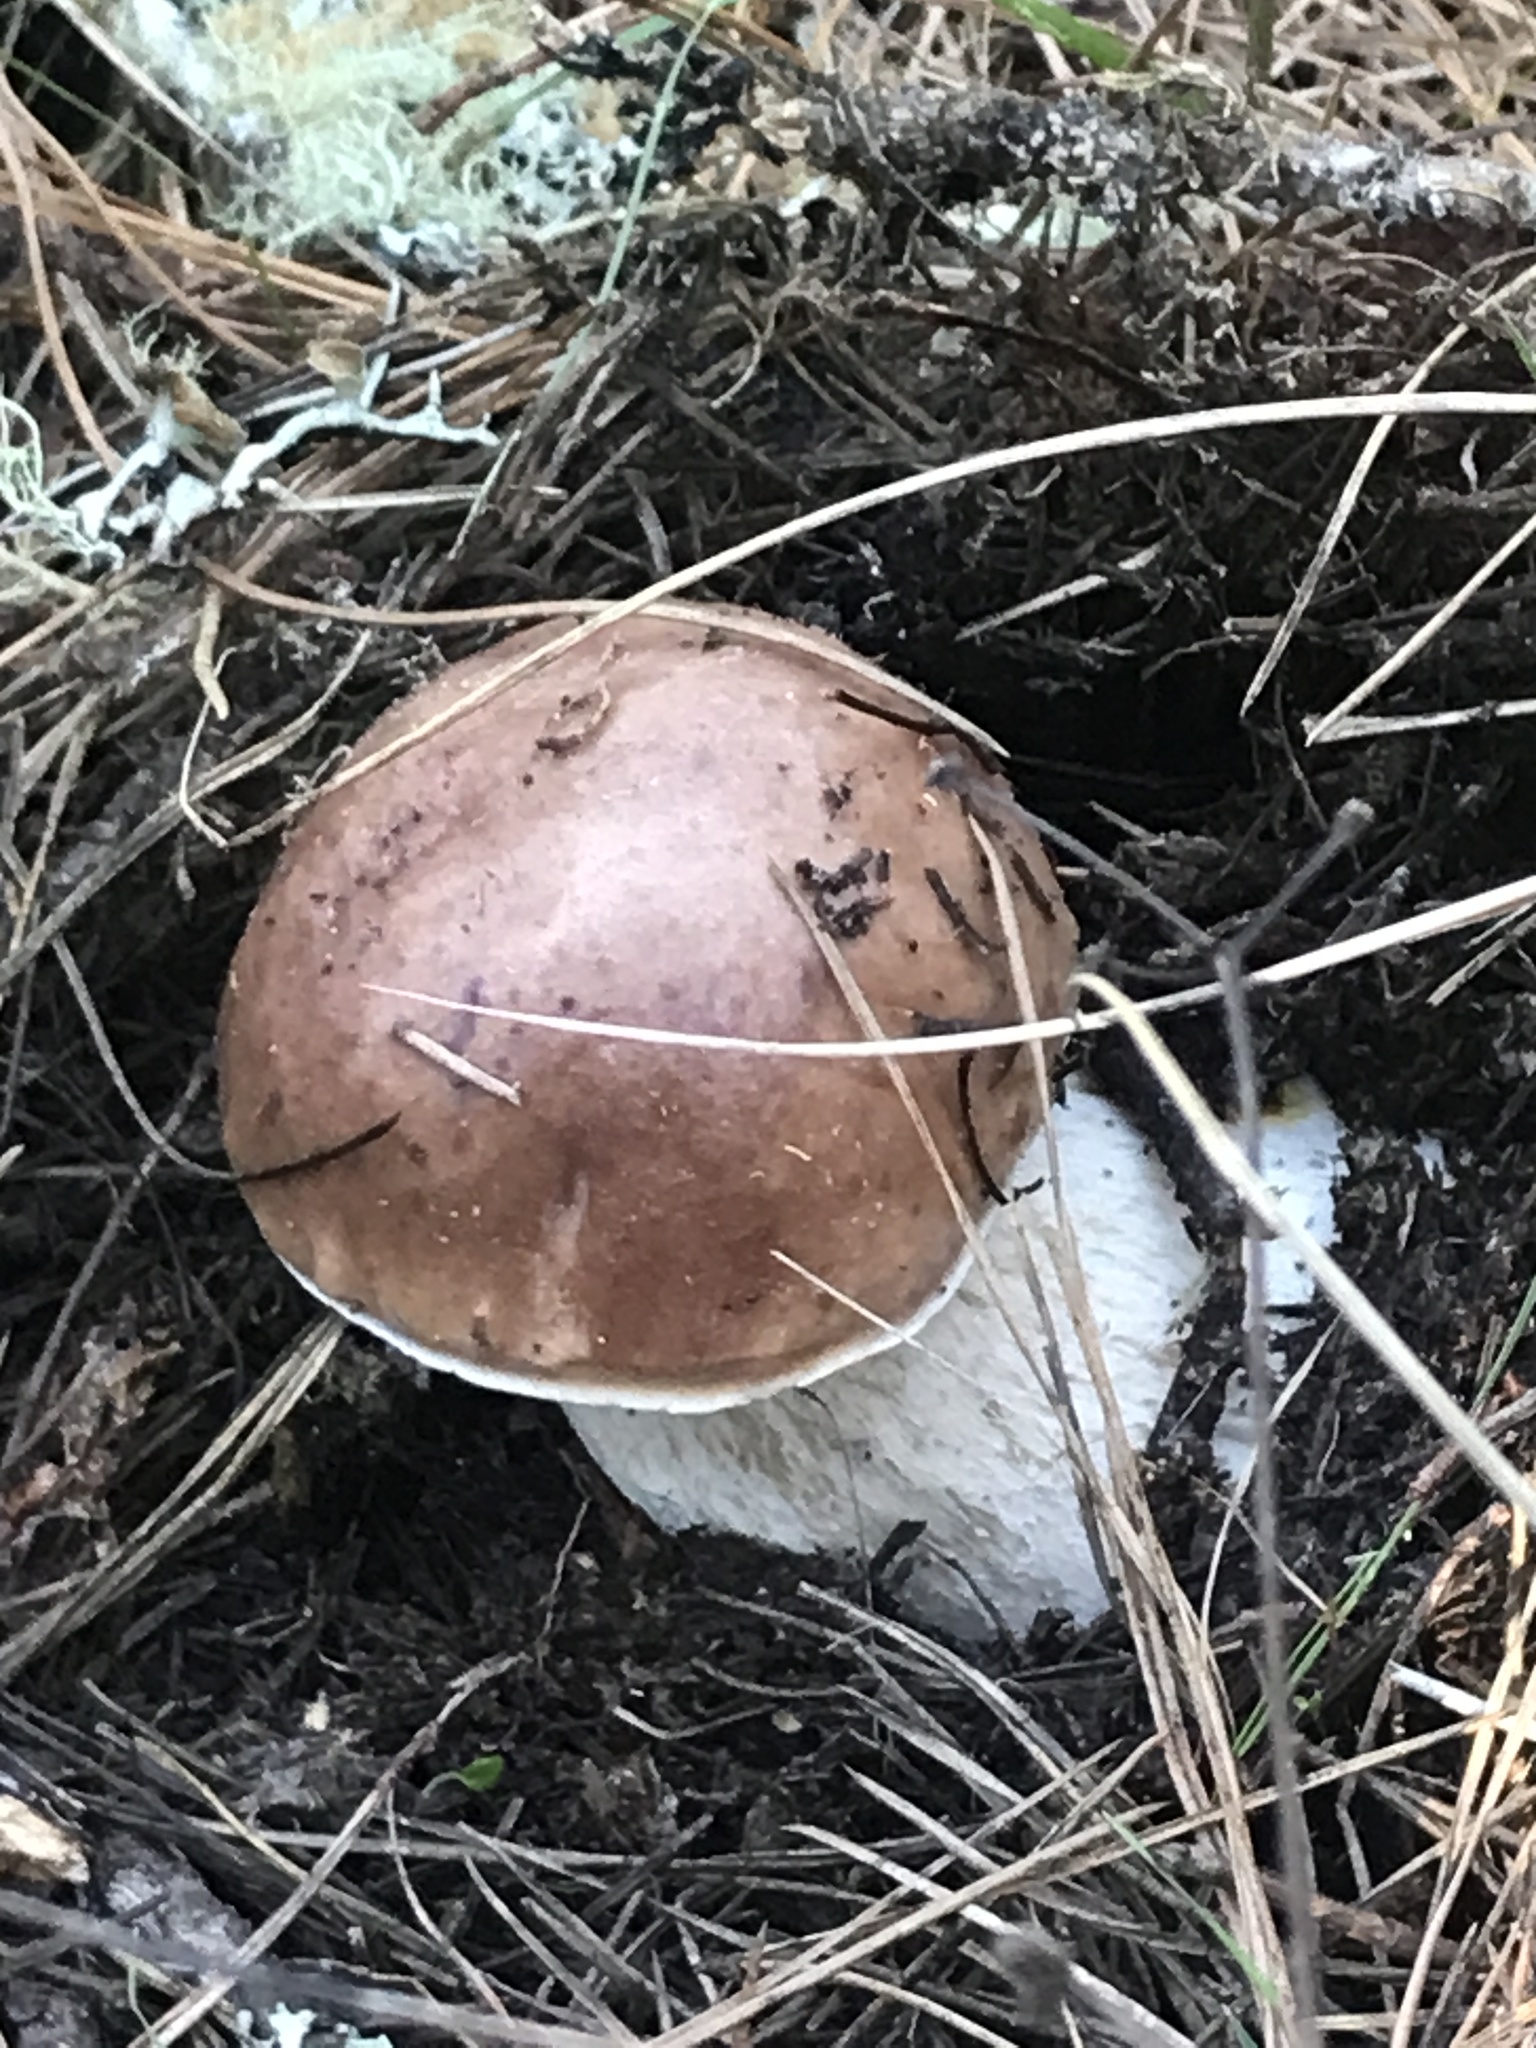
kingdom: Fungi
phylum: Basidiomycota
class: Agaricomycetes
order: Boletales
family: Boletaceae
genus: Boletus
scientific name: Boletus edulis
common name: Cep
